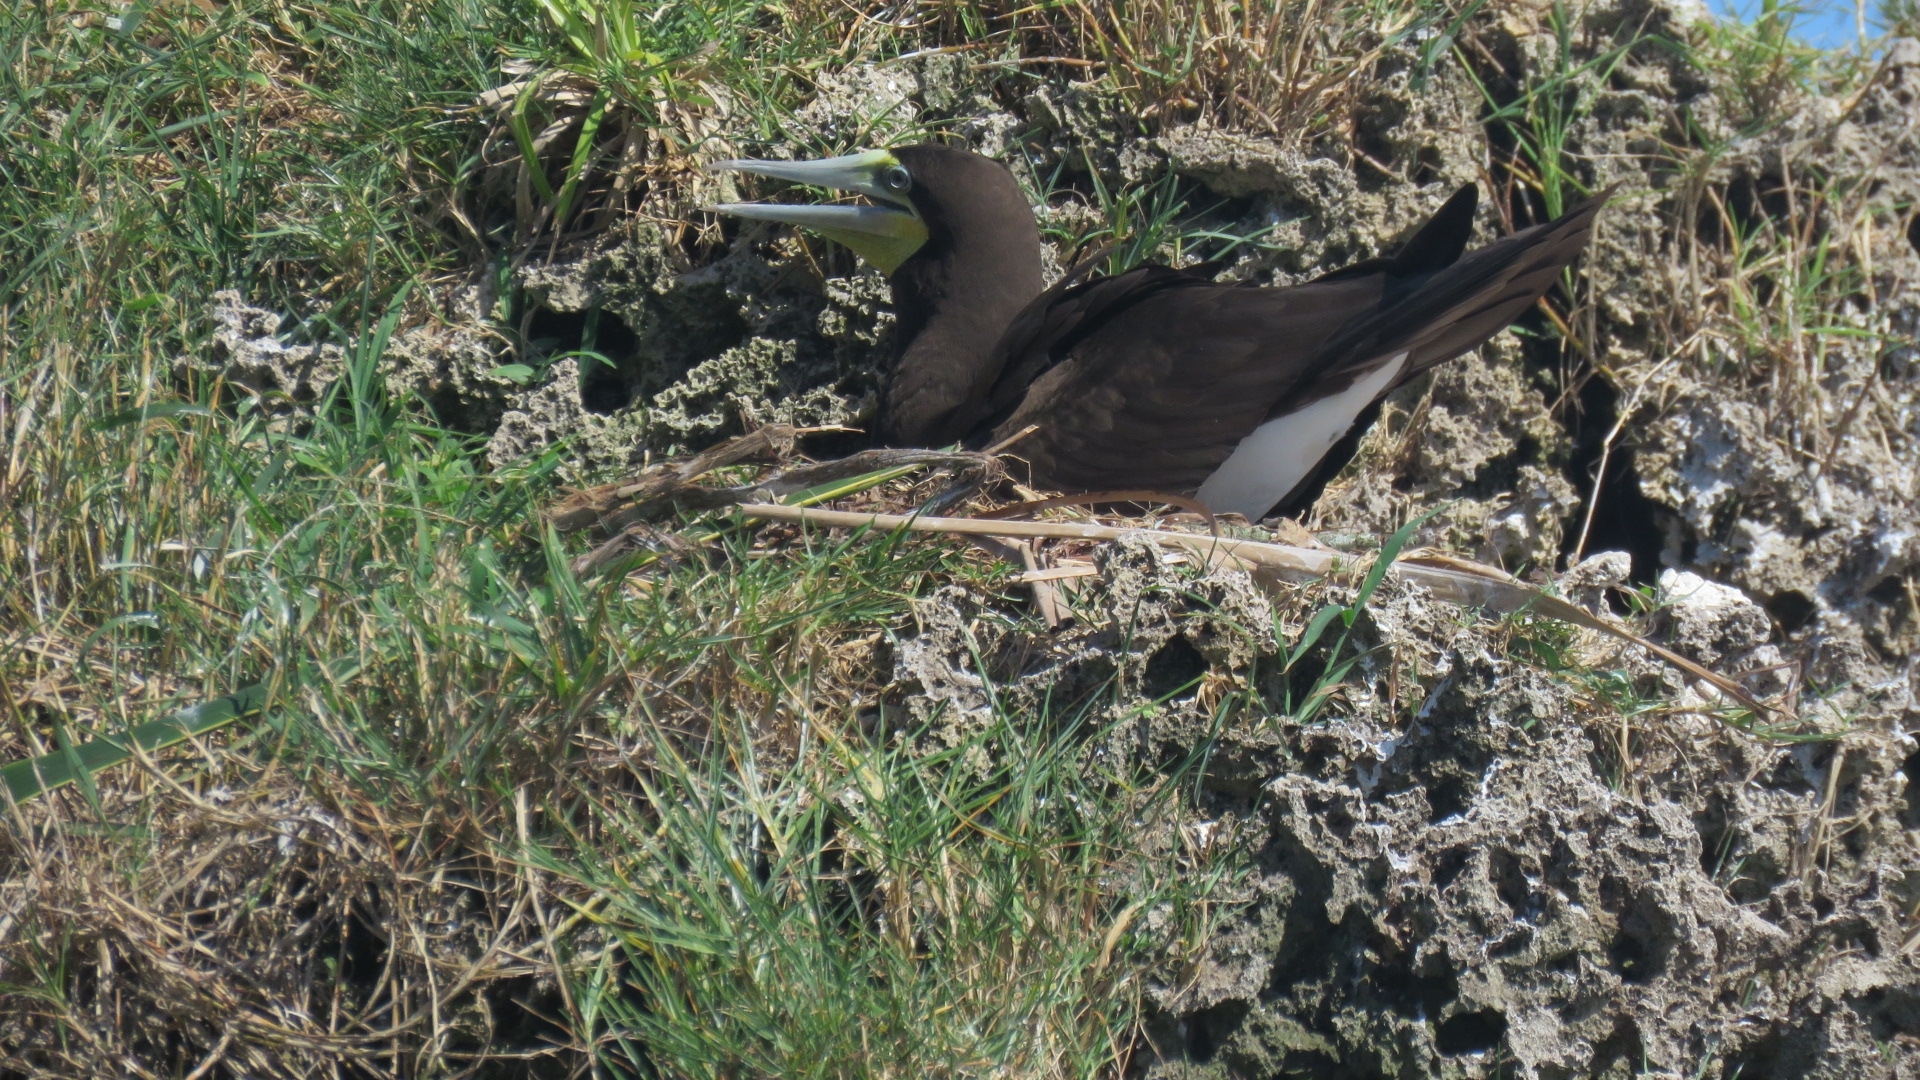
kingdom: Animalia
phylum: Chordata
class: Aves
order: Suliformes
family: Sulidae
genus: Sula
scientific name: Sula leucogaster
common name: Brown booby
